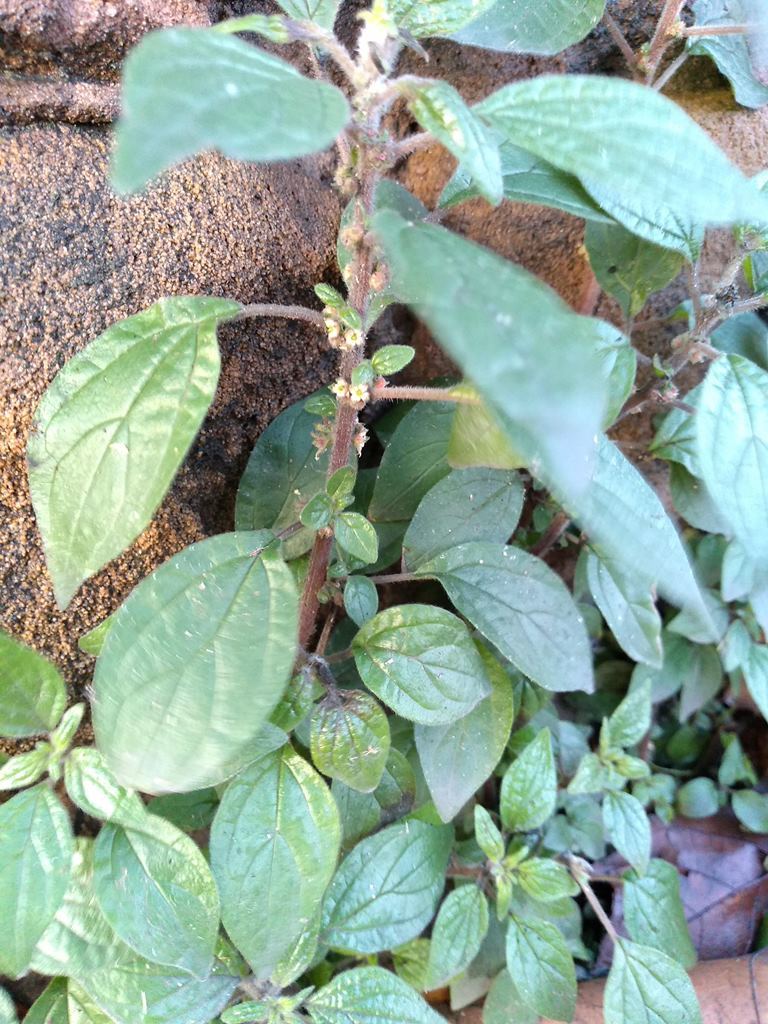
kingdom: Plantae
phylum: Tracheophyta
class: Magnoliopsida
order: Rosales
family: Urticaceae
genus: Parietaria
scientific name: Parietaria judaica
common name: Pellitory-of-the-wall
